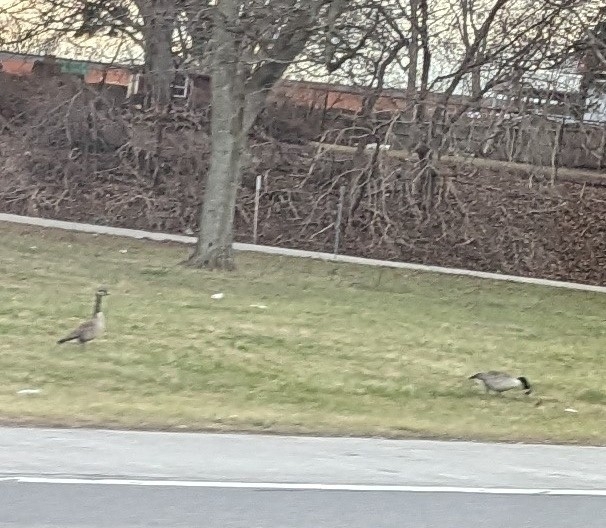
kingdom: Animalia
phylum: Chordata
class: Aves
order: Anseriformes
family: Anatidae
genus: Branta
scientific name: Branta canadensis
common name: Canada goose
